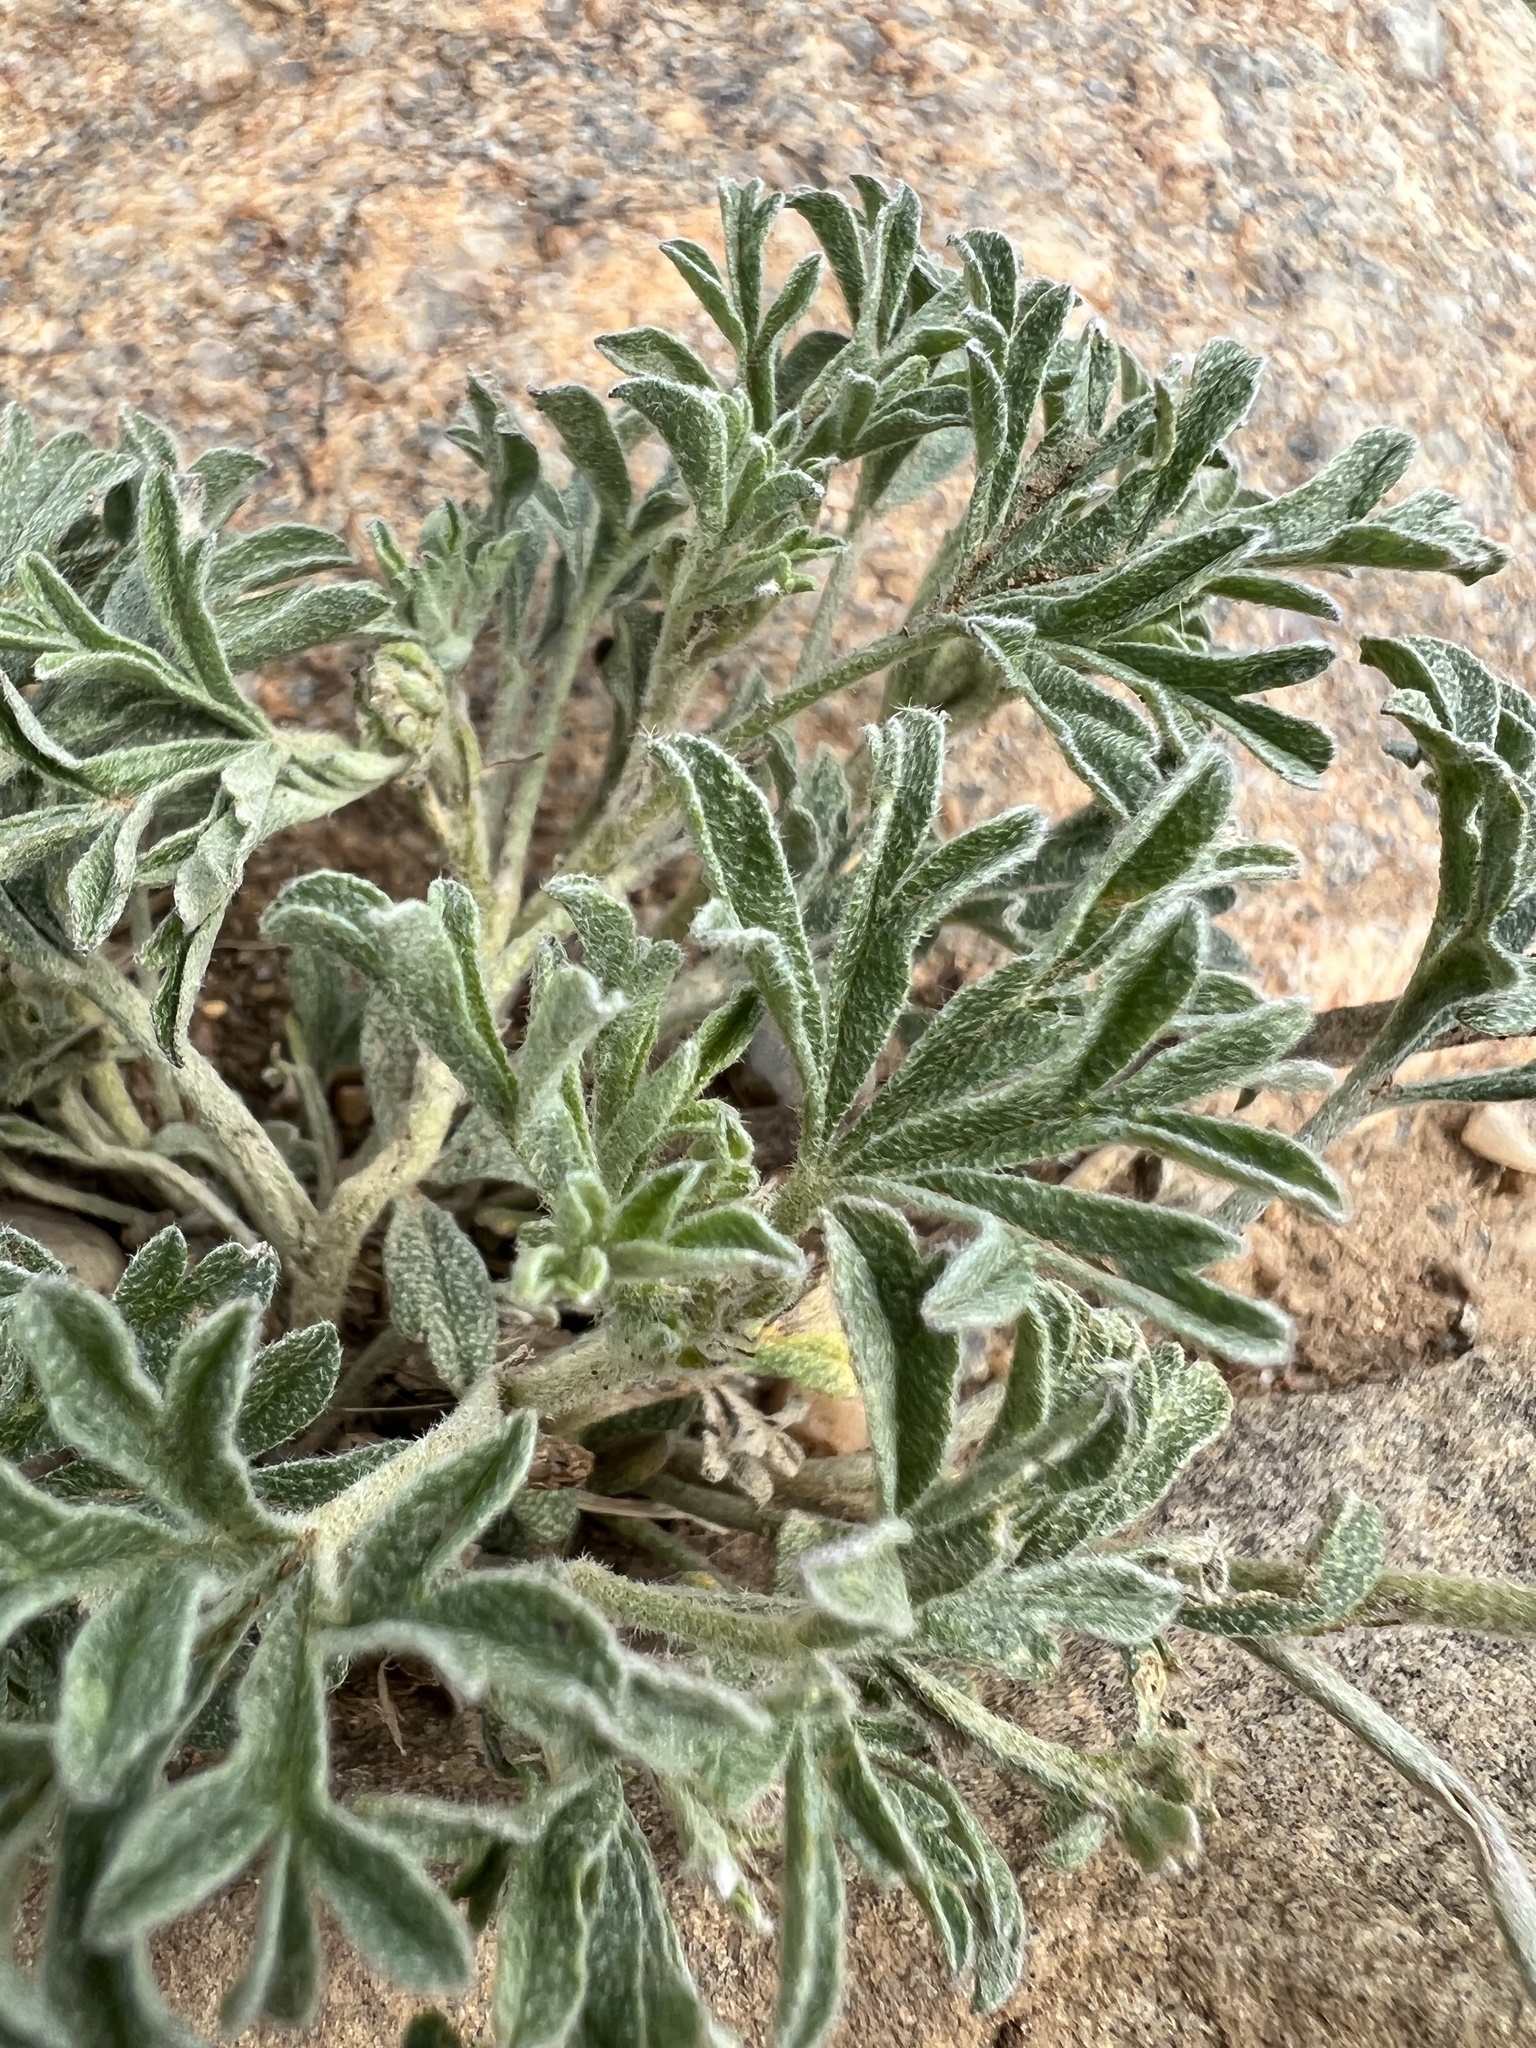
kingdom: Plantae
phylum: Tracheophyta
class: Magnoliopsida
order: Malvales
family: Malvaceae
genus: Sphaeralcea
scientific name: Sphaeralcea coccinea
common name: Moss-rose
